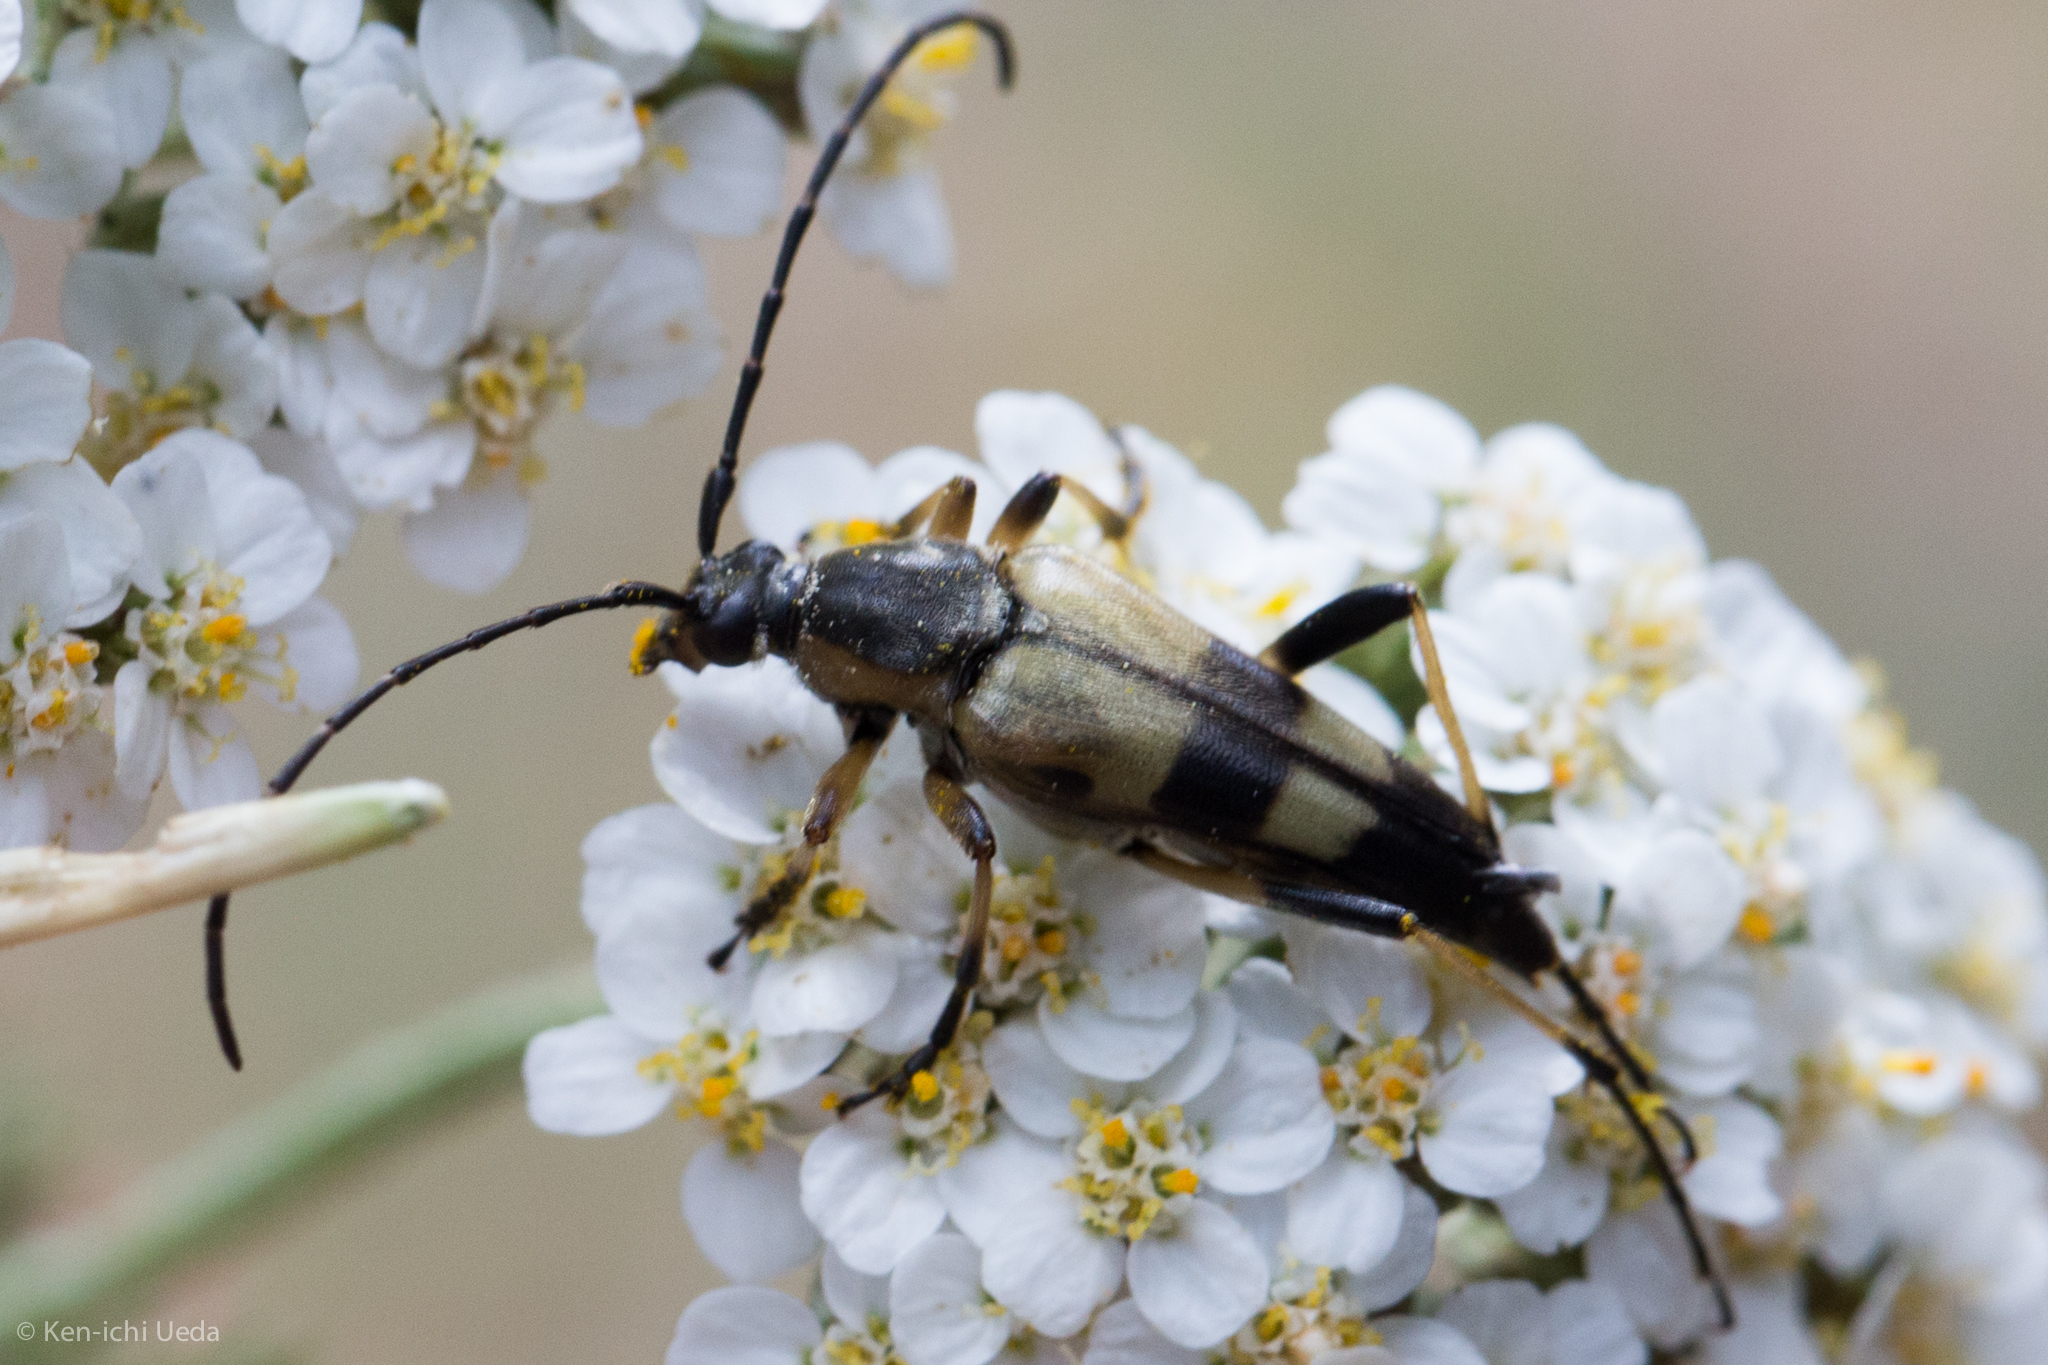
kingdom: Animalia
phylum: Arthropoda
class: Insecta
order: Coleoptera
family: Cerambycidae
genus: Etorofus
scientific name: Etorofus obliteratus
